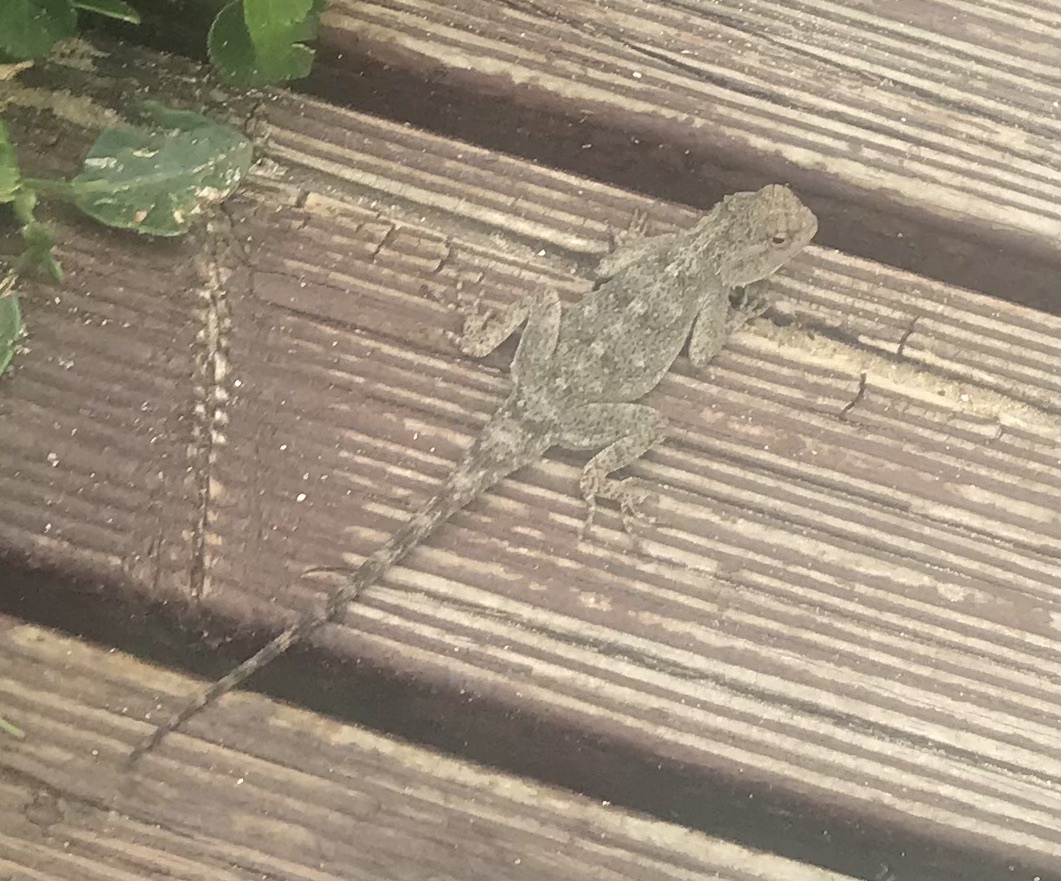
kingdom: Animalia
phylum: Chordata
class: Squamata
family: Agamidae
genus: Agama
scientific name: Agama atra
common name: Southern african rock agama
